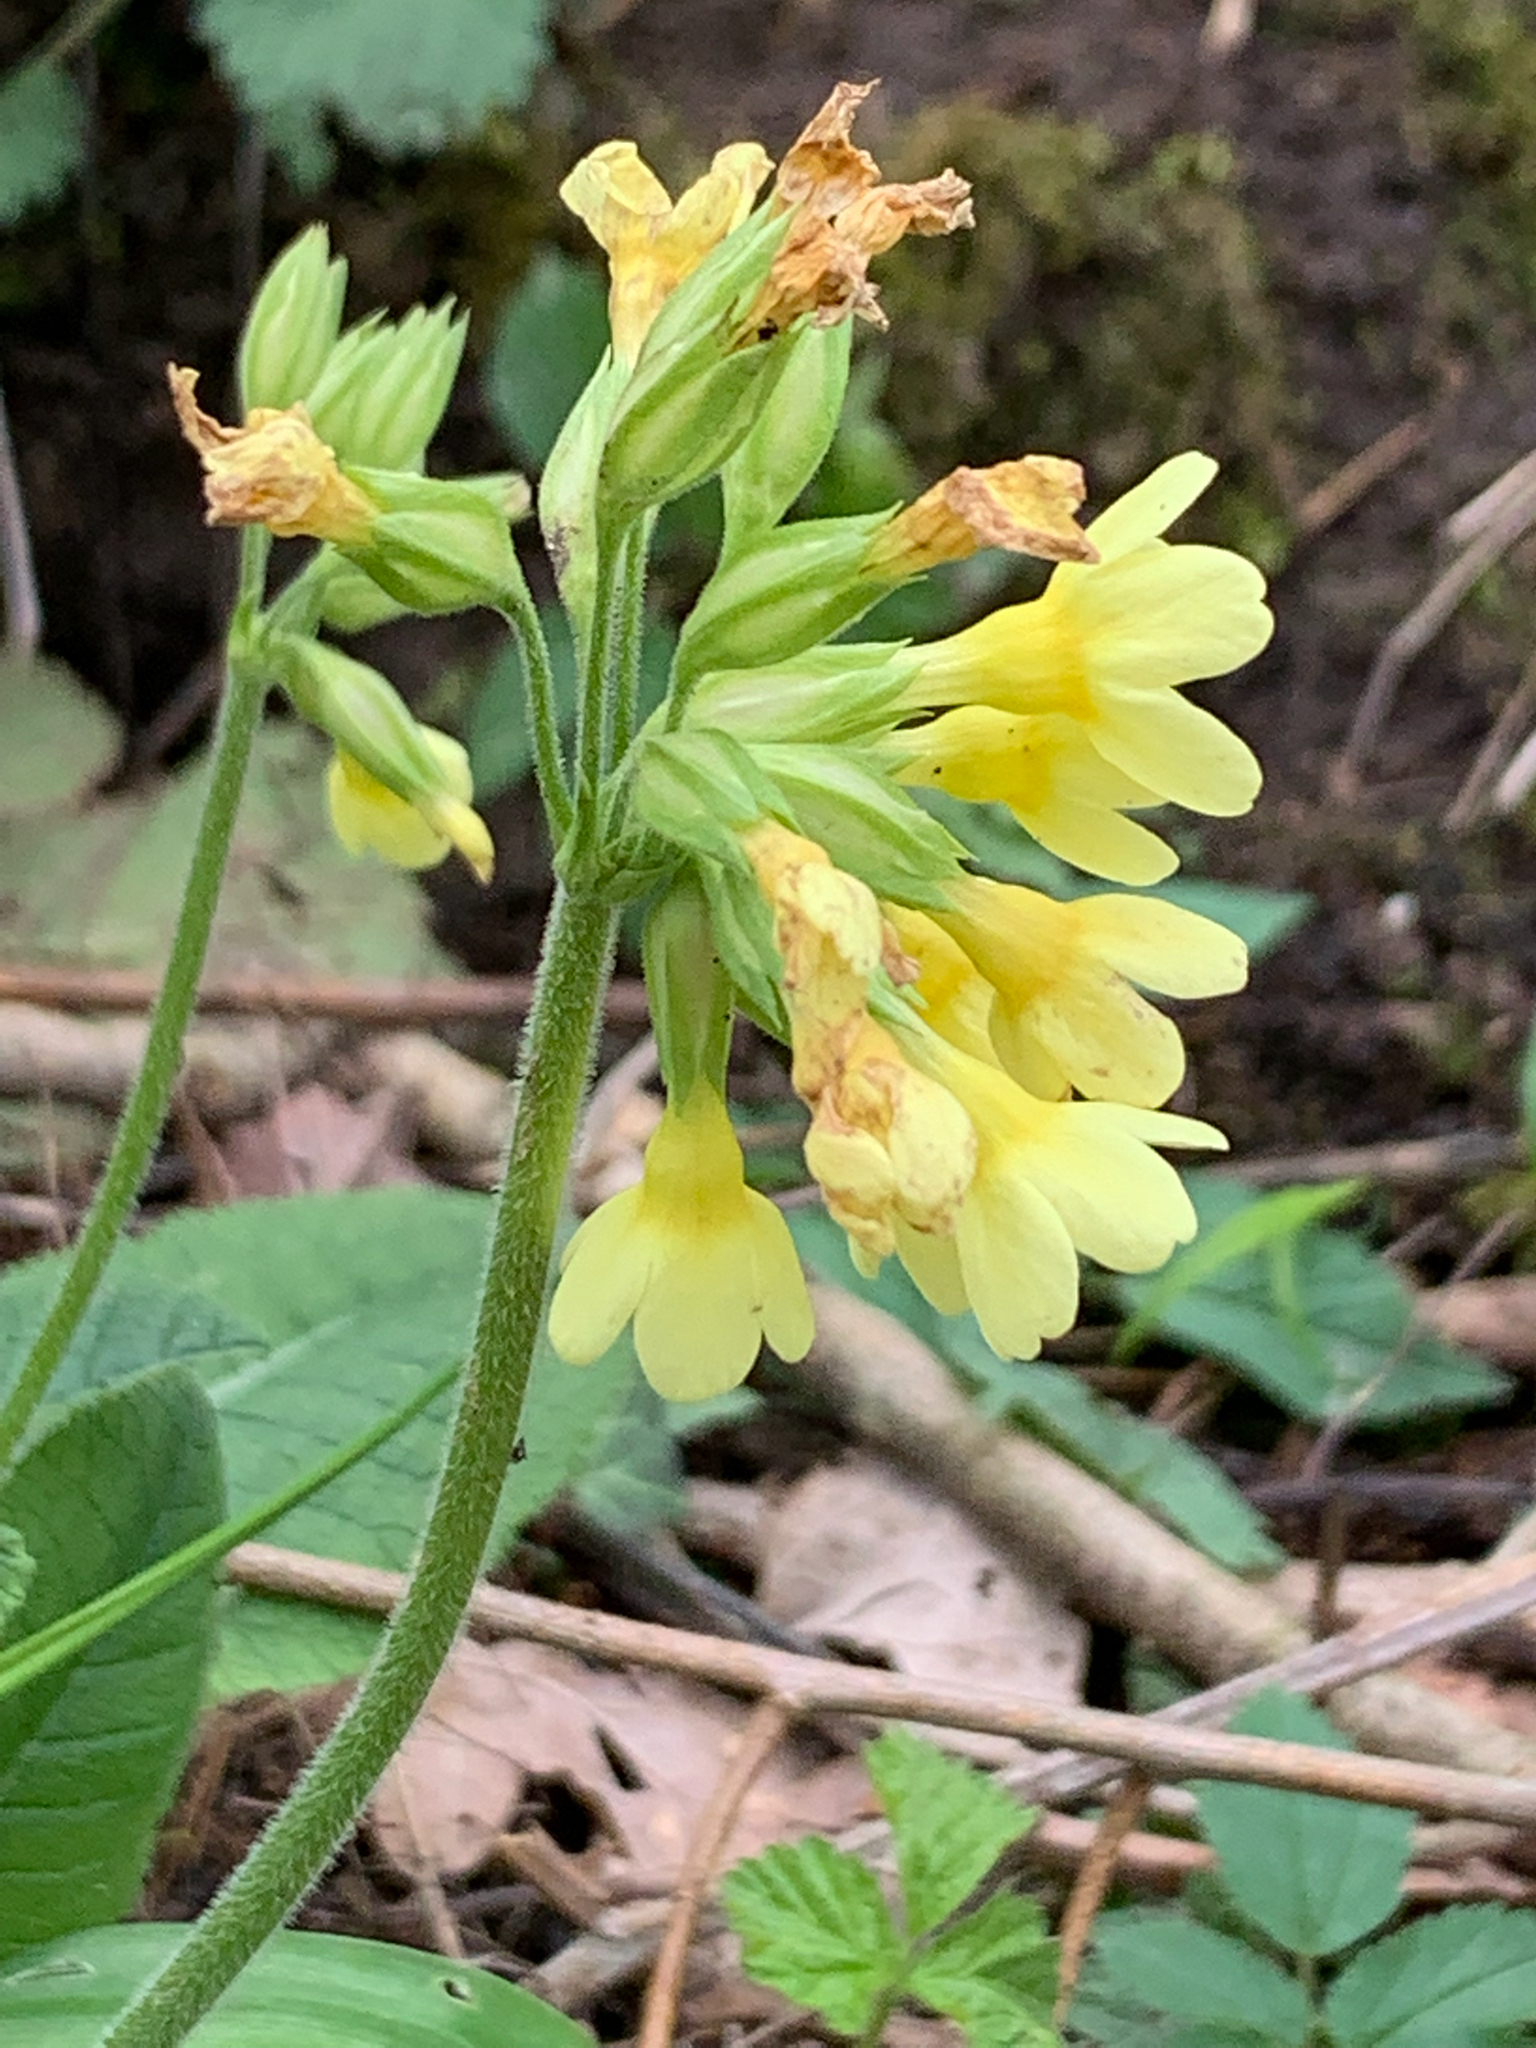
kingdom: Plantae
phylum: Tracheophyta
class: Magnoliopsida
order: Ericales
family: Primulaceae
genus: Primula
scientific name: Primula elatior
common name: Oxlip
